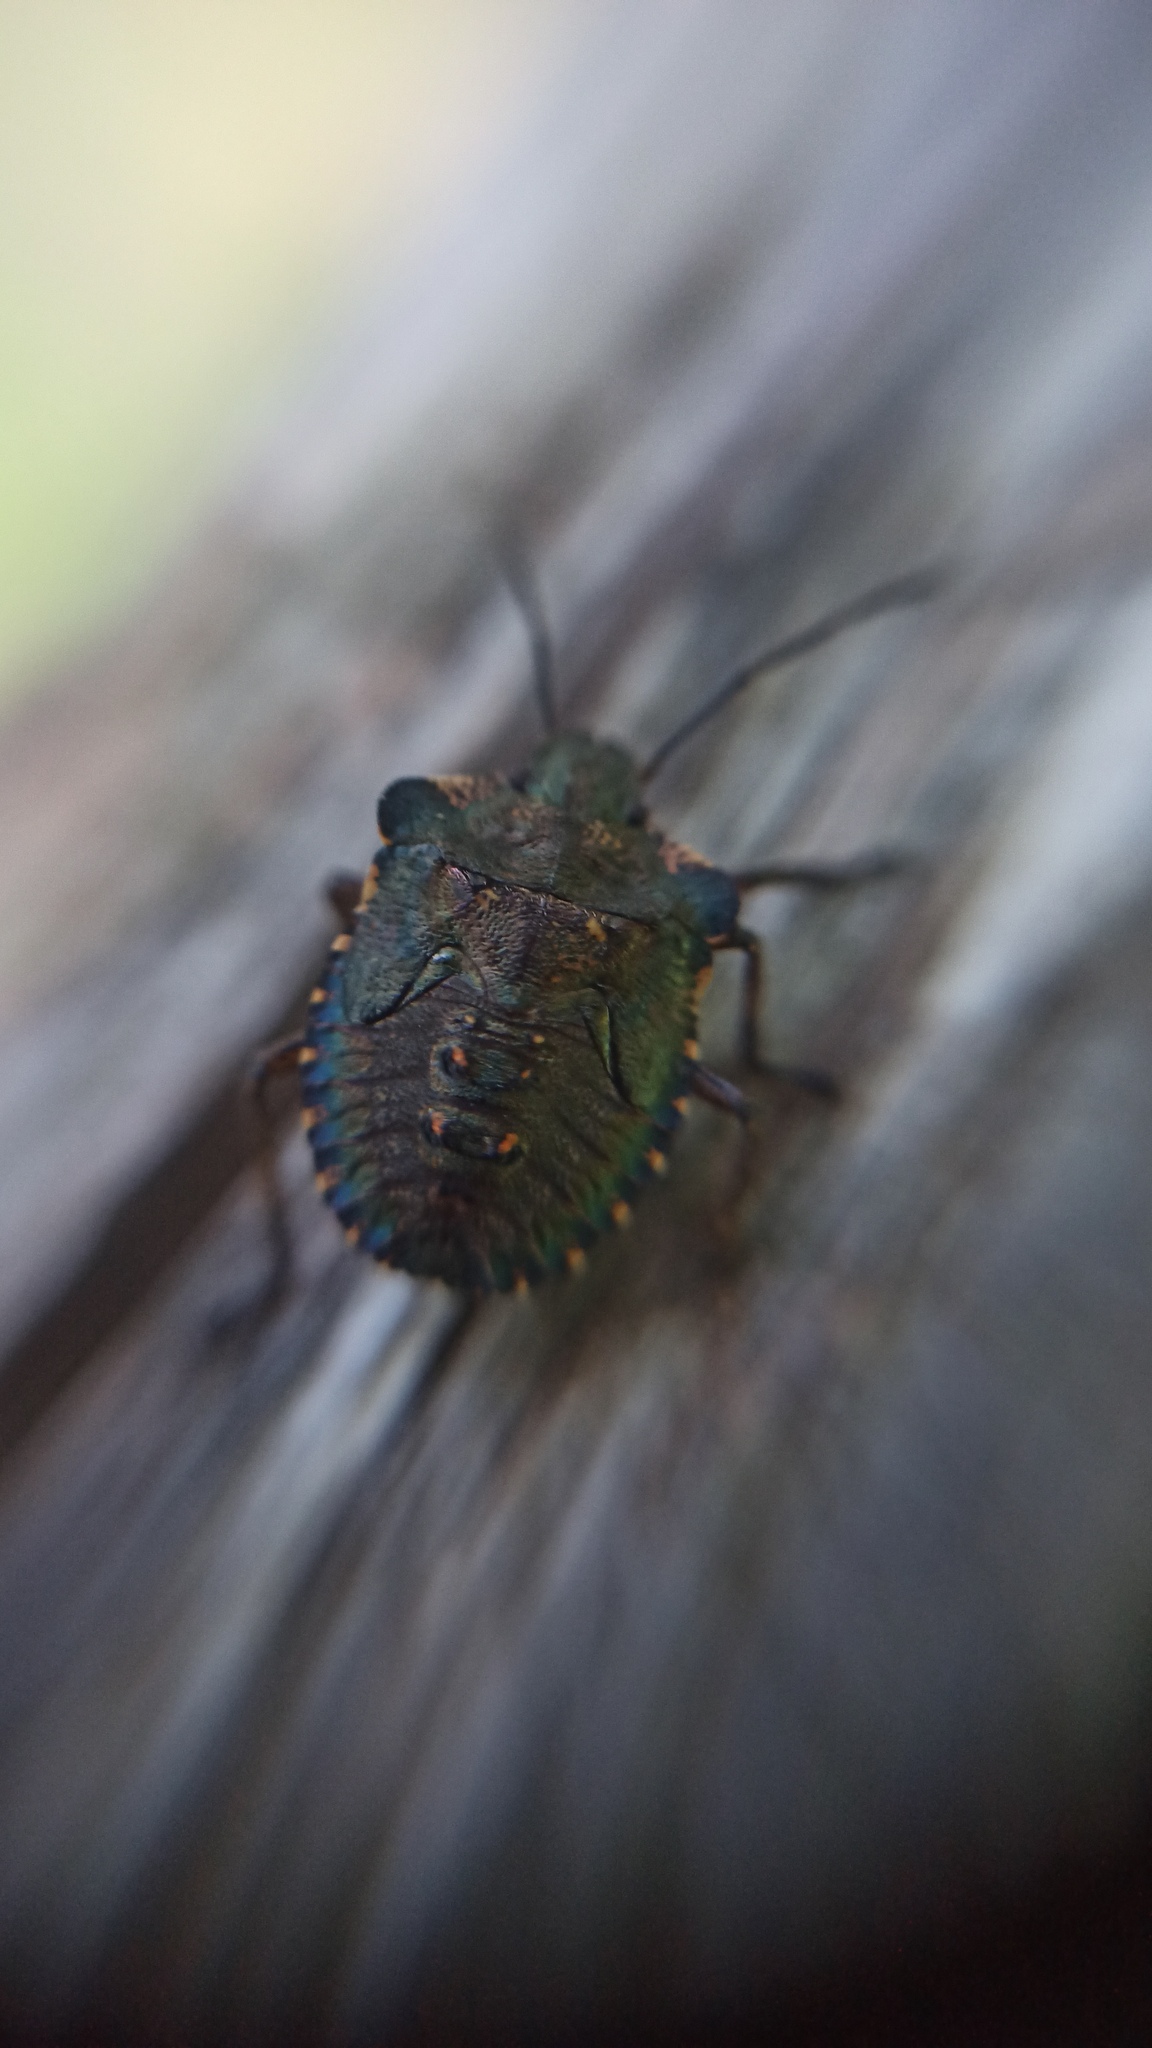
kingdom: Animalia
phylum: Arthropoda
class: Insecta
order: Hemiptera
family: Pentatomidae
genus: Pentatoma
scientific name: Pentatoma rufipes
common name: Forest bug
